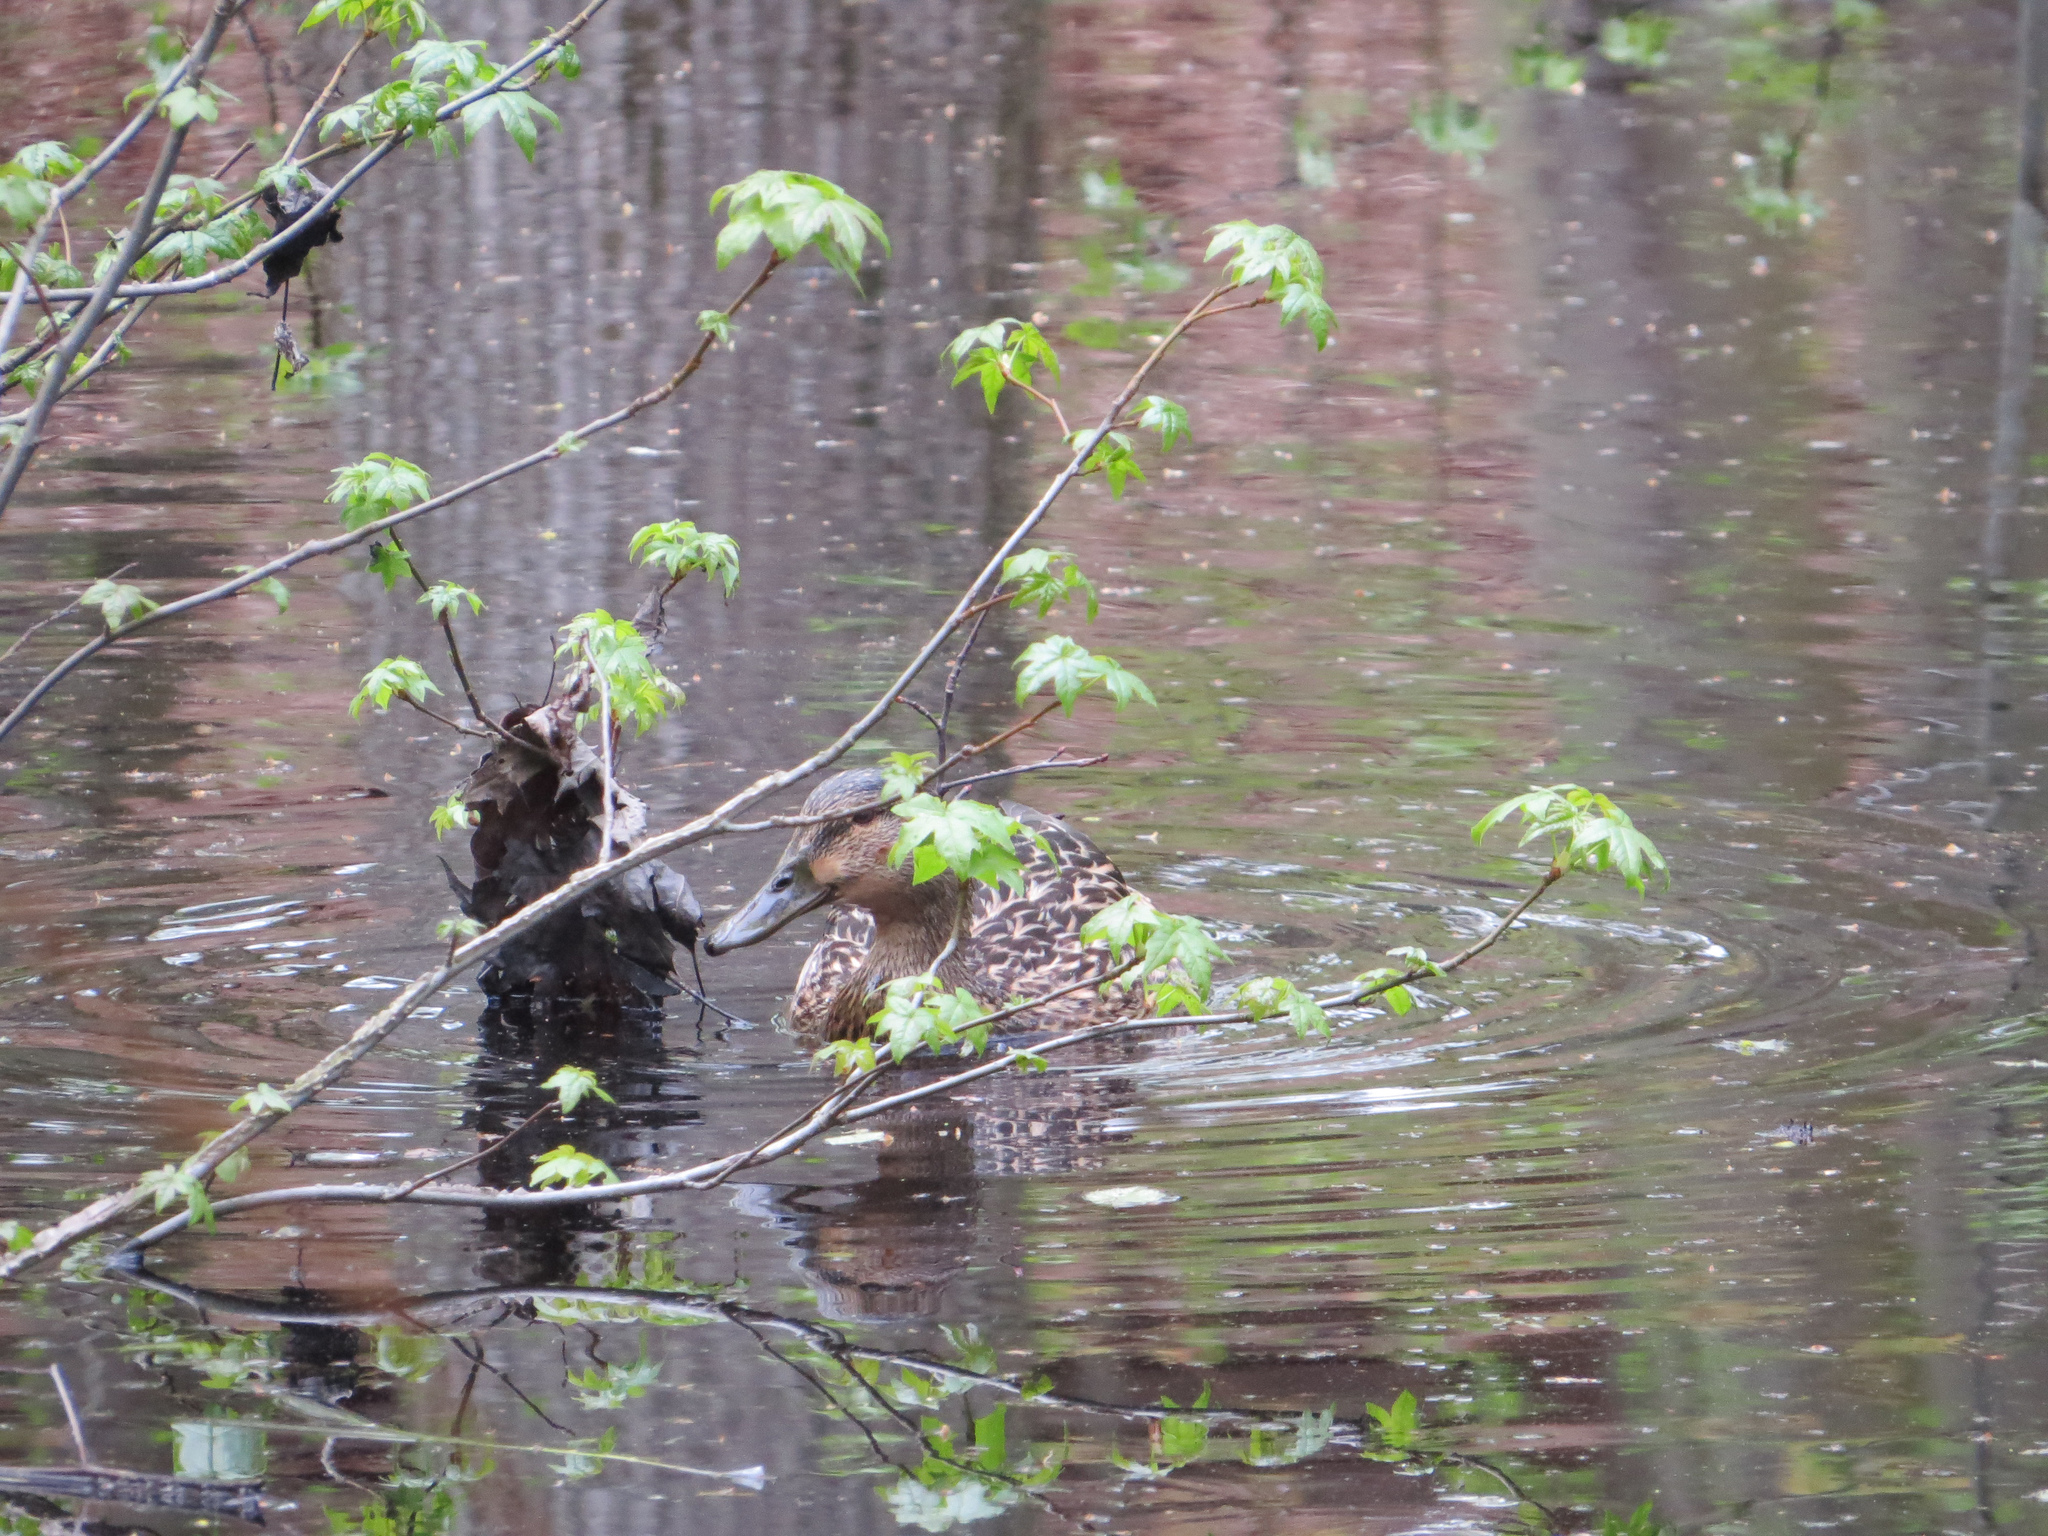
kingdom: Animalia
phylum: Chordata
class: Aves
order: Anseriformes
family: Anatidae
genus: Anas
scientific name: Anas platyrhynchos
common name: Mallard
